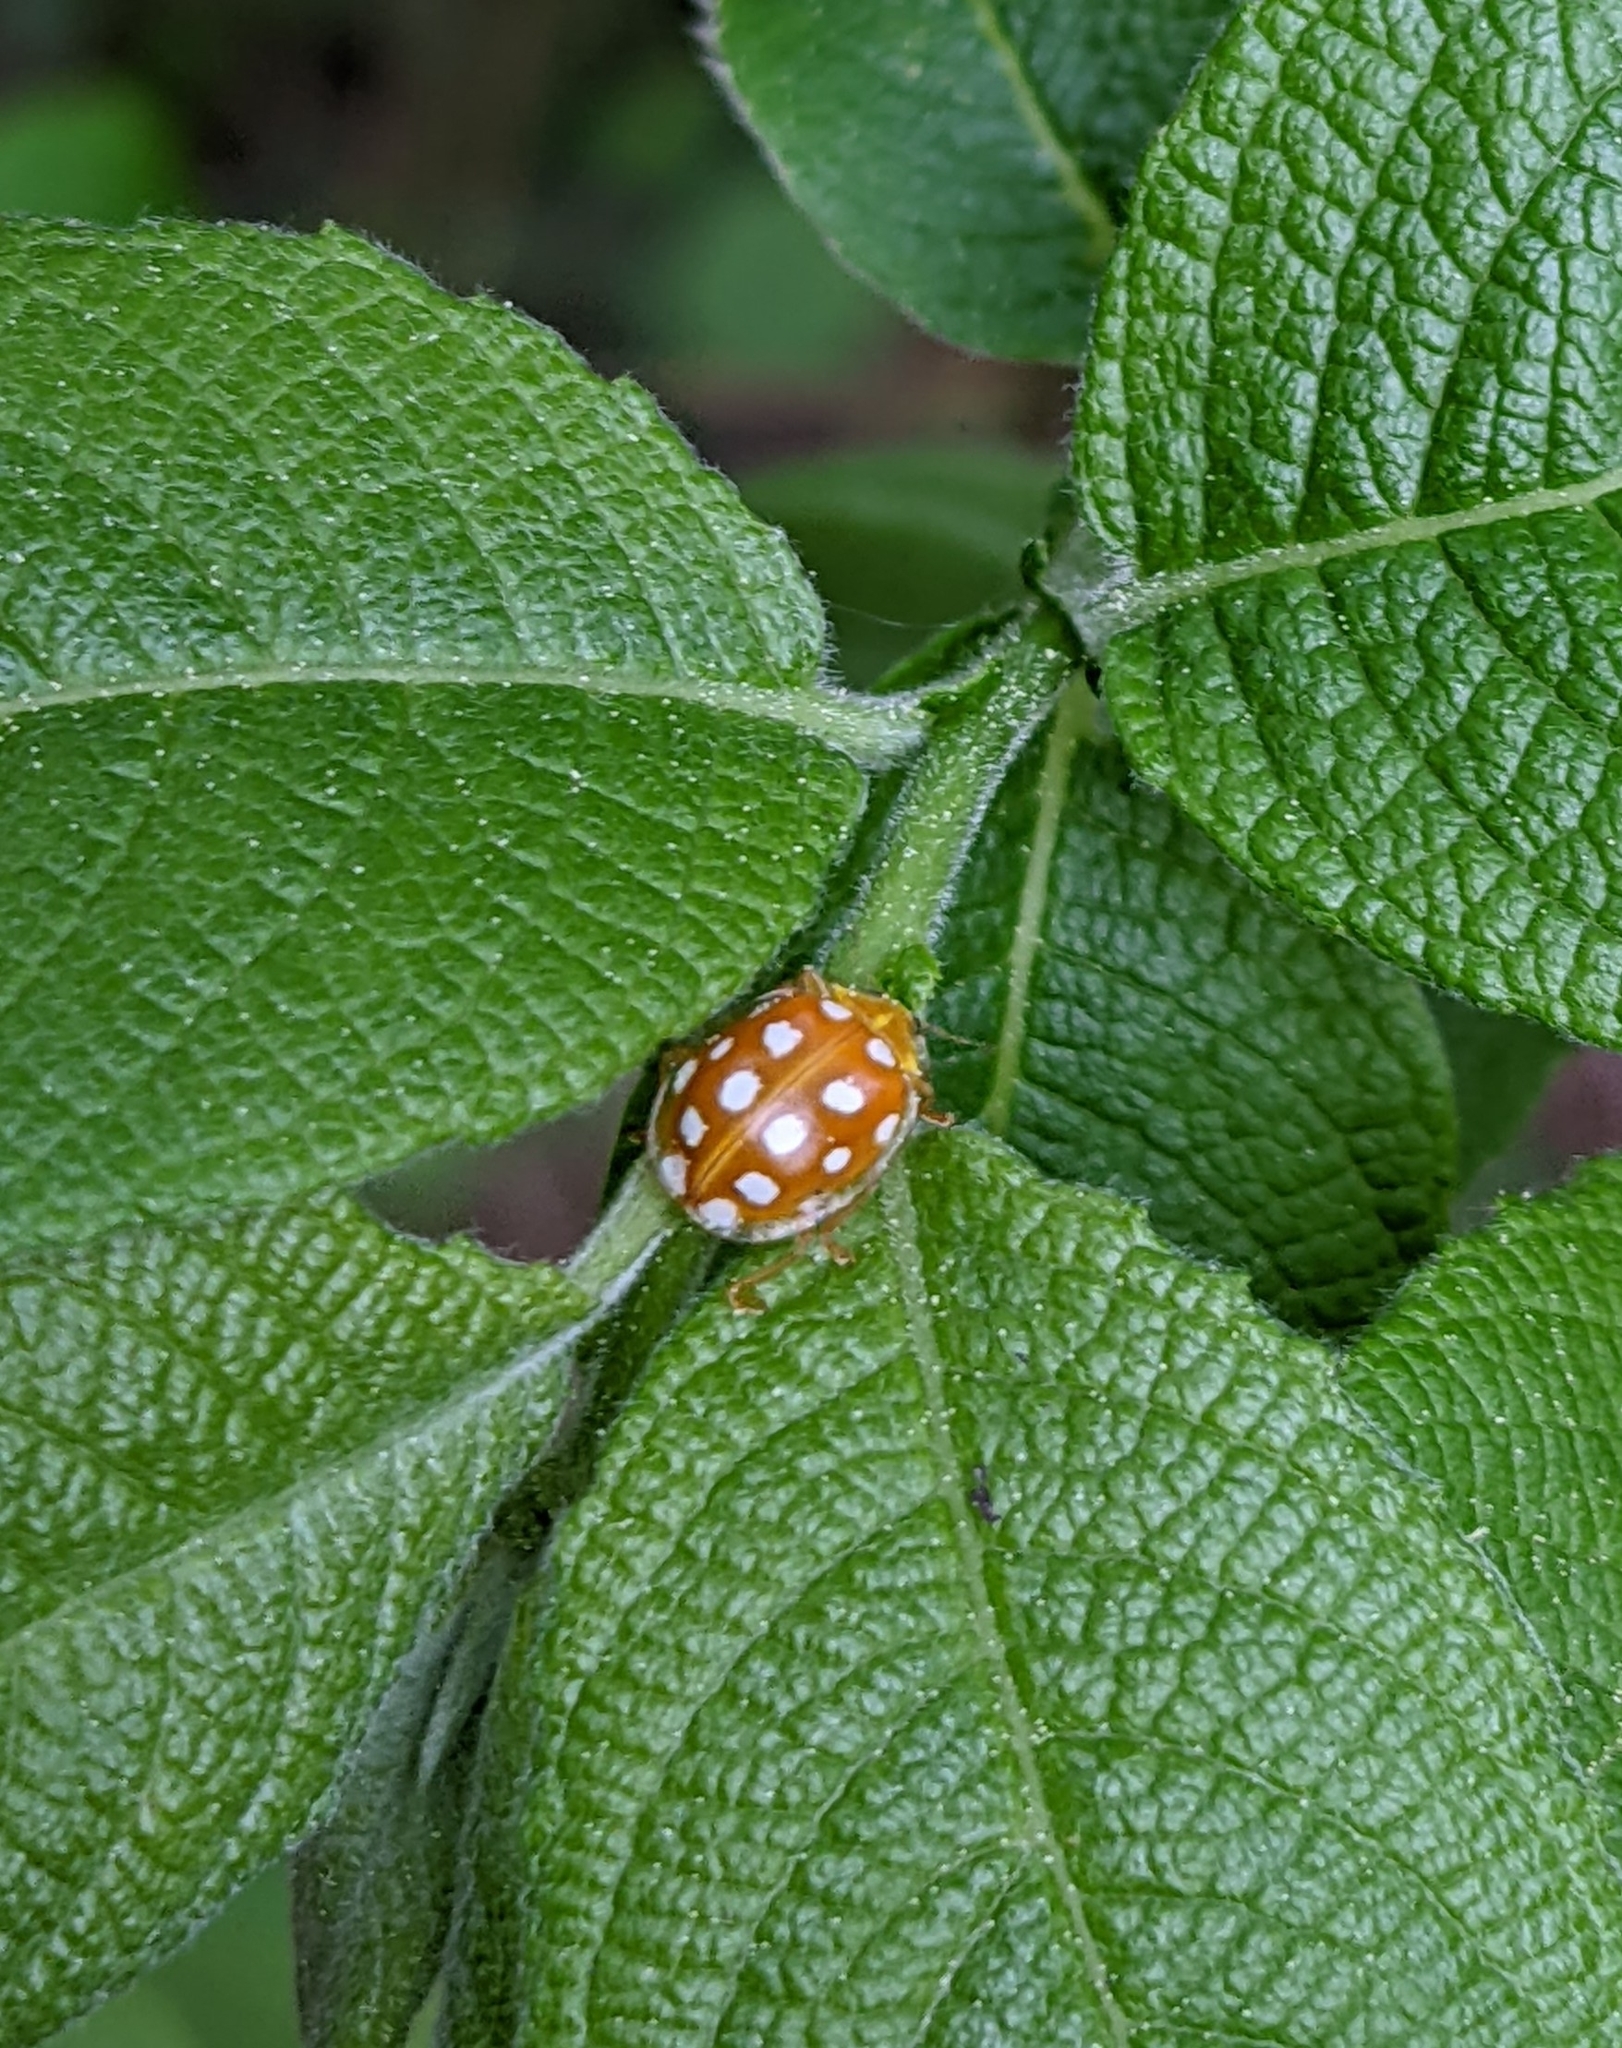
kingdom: Animalia
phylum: Arthropoda
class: Insecta
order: Coleoptera
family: Coccinellidae
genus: Halyzia
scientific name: Halyzia sedecimguttata
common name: Orange ladybird
